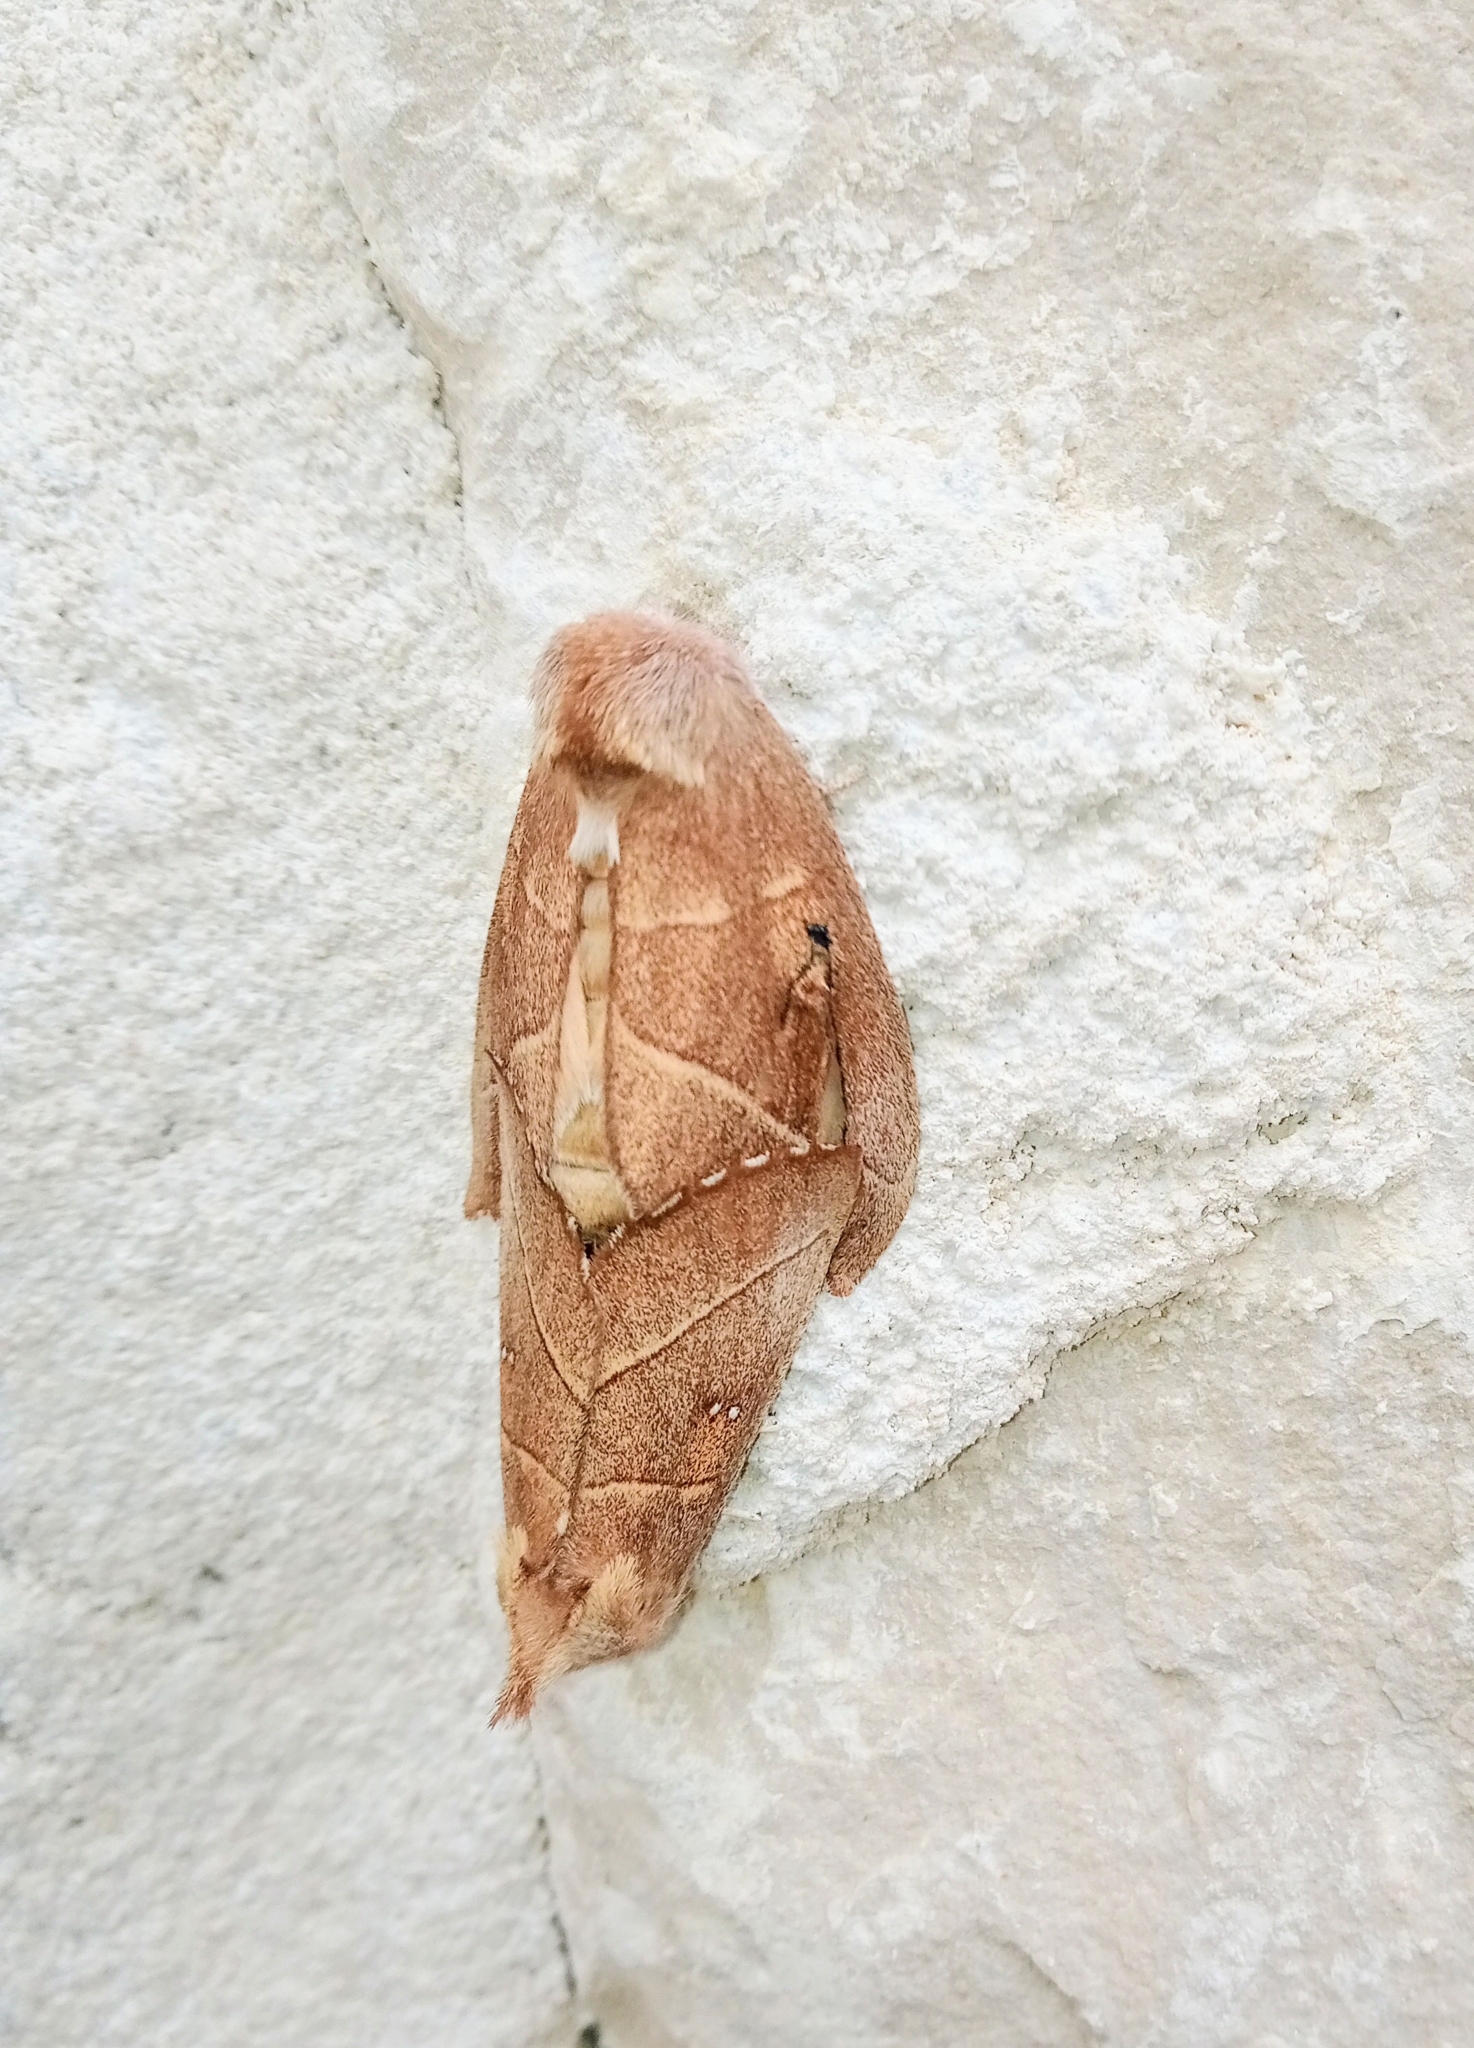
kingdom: Animalia
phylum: Arthropoda
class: Insecta
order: Lepidoptera
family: Notodontidae
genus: Nadata
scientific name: Nadata gibbosa
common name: White-dotted prominent
